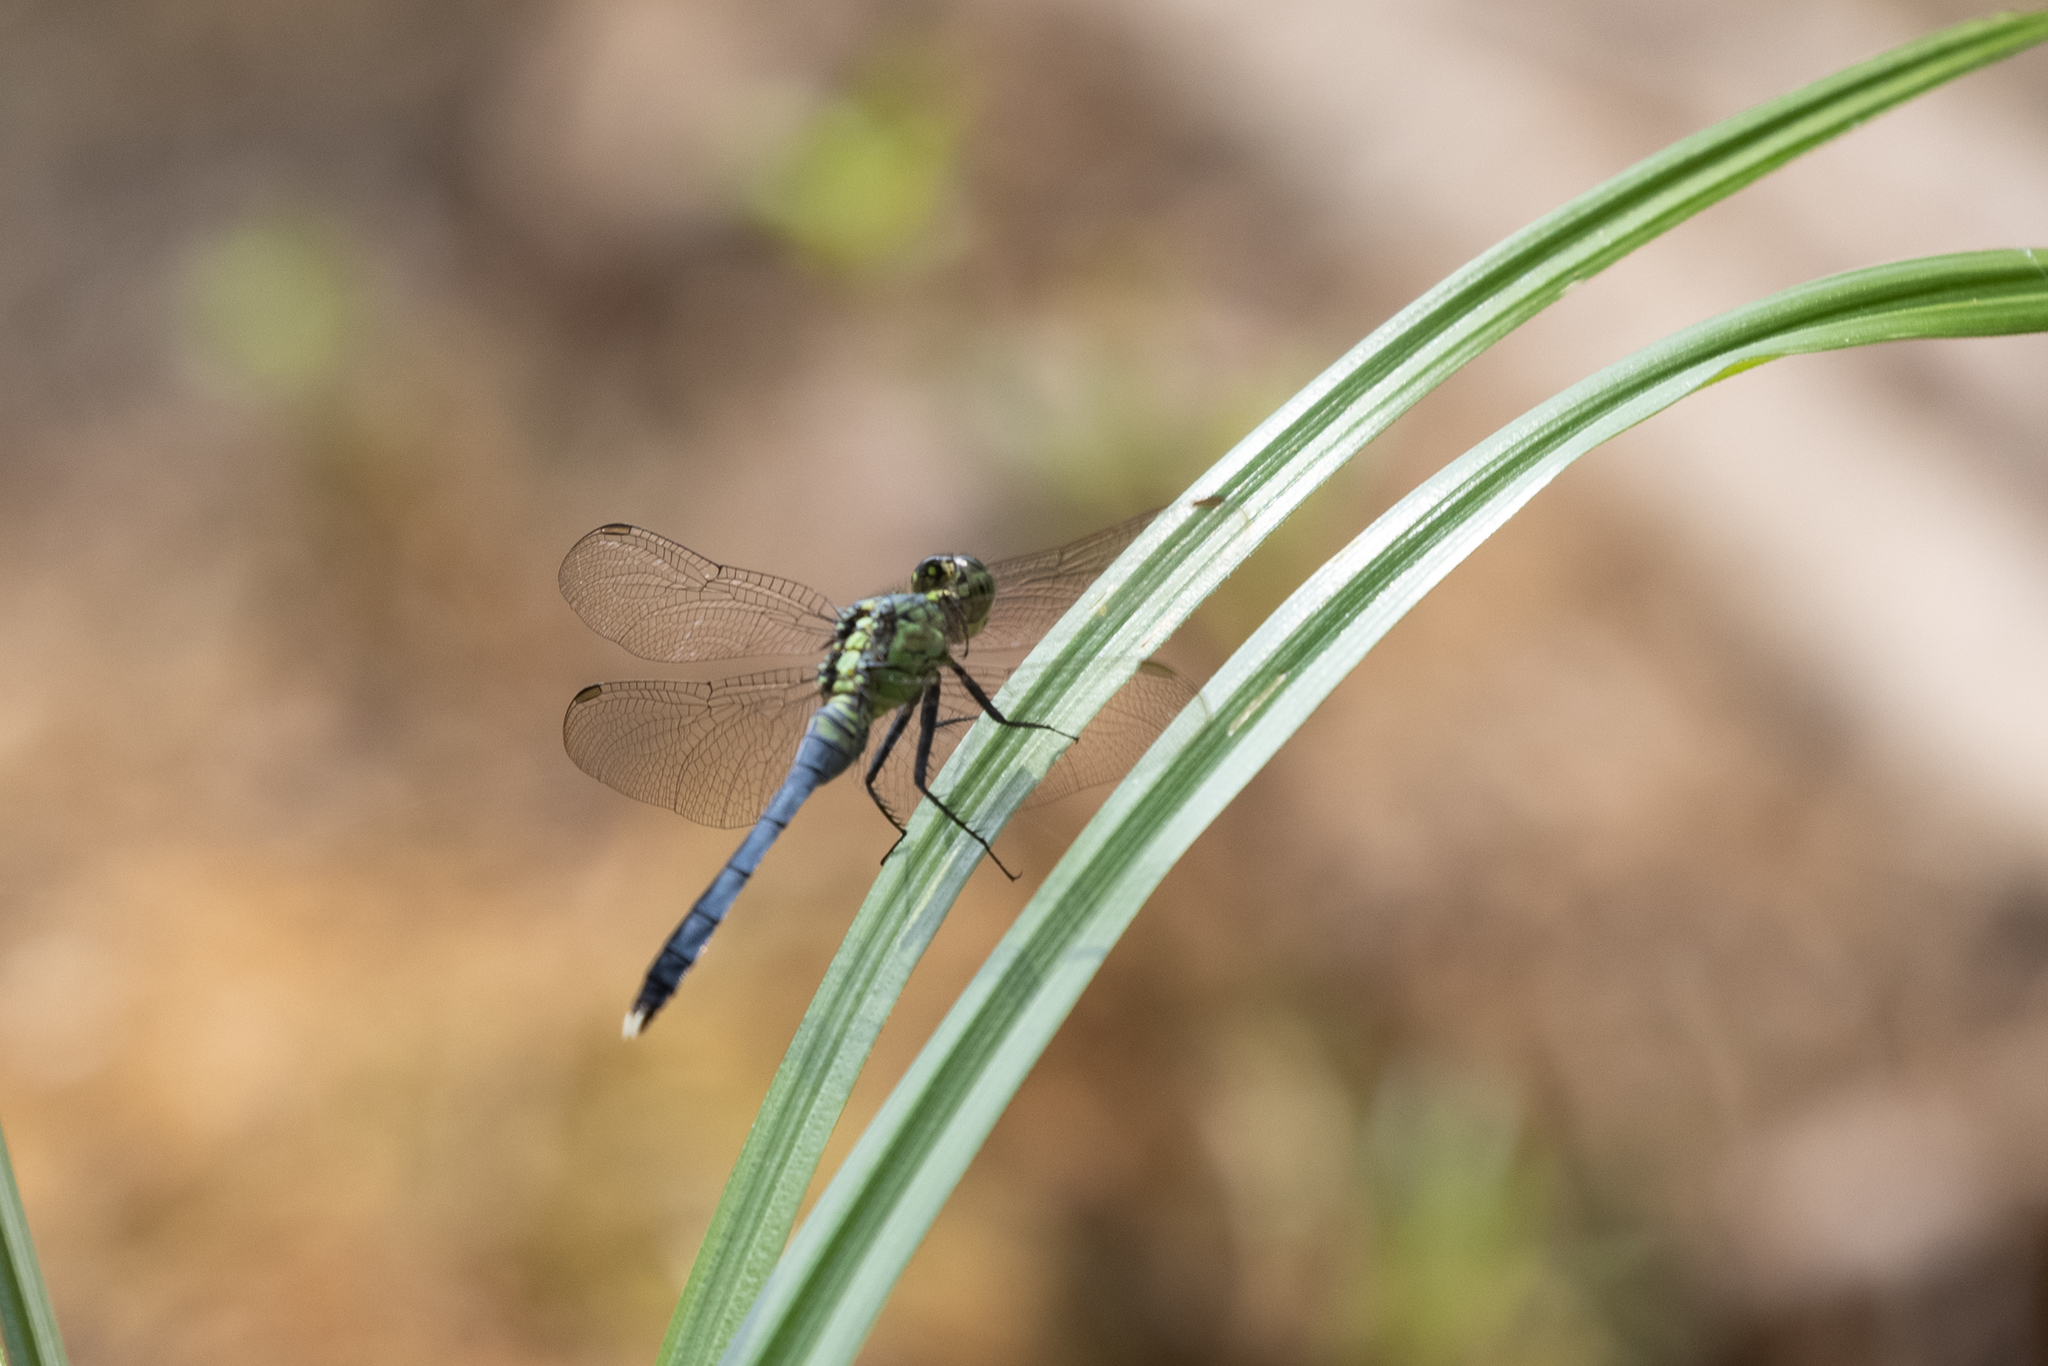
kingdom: Animalia
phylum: Arthropoda
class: Insecta
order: Odonata
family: Libellulidae
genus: Erythemis
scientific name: Erythemis simplicicollis
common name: Eastern pondhawk
